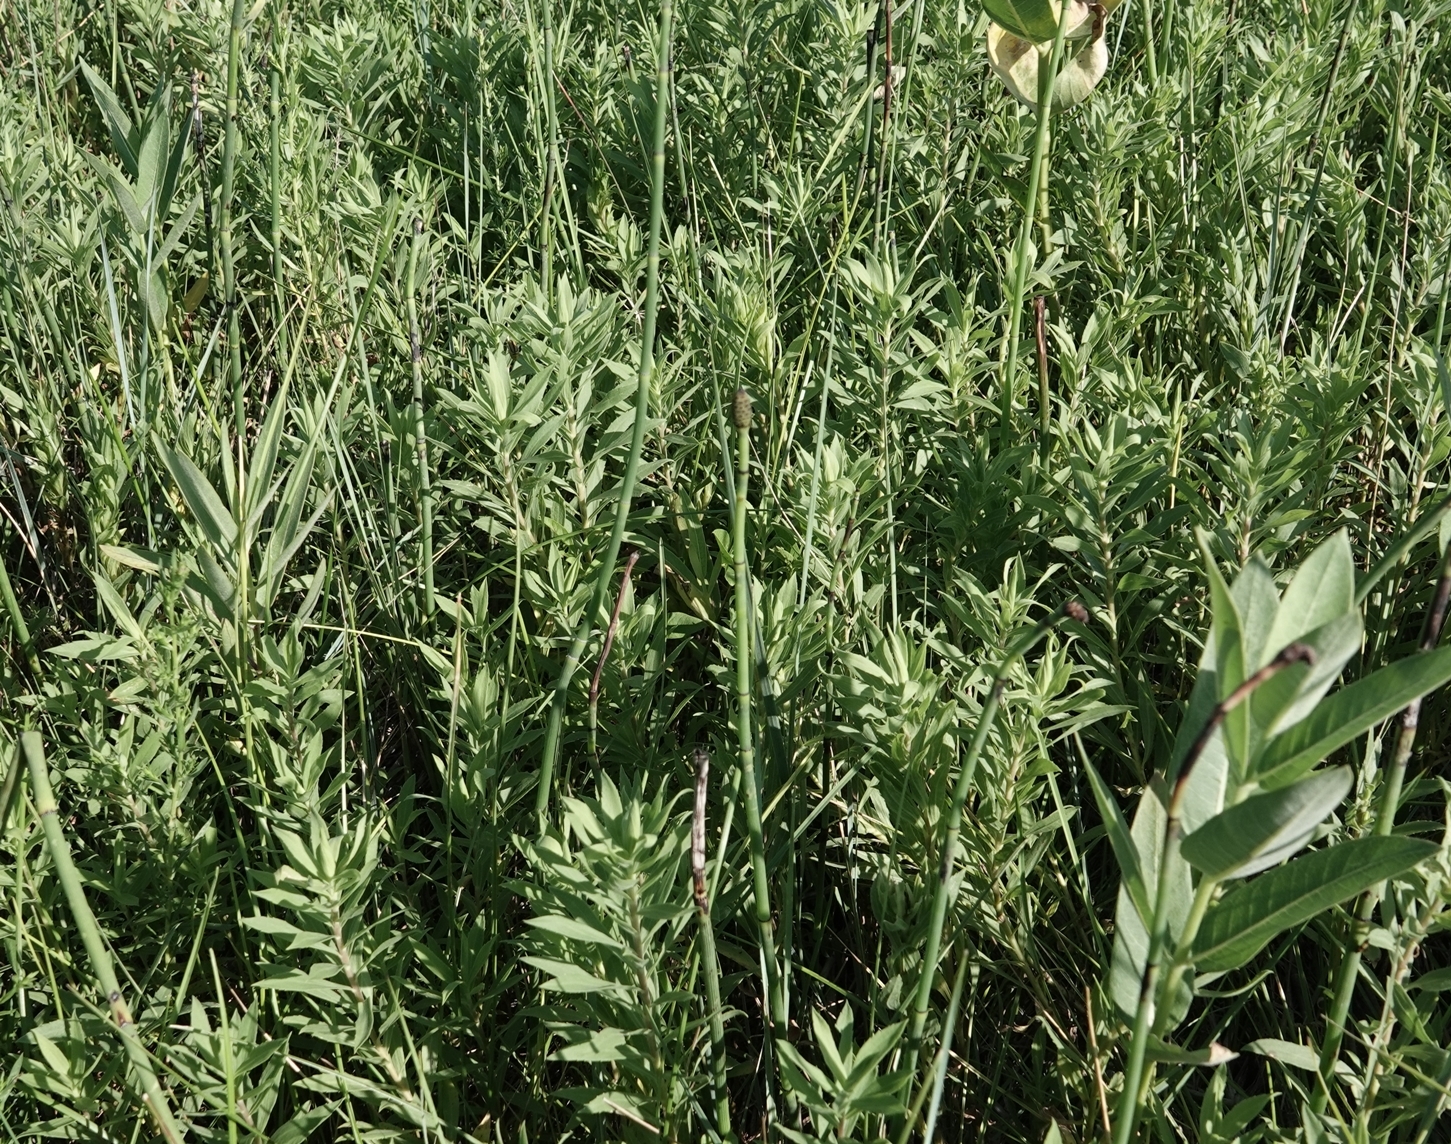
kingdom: Plantae
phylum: Tracheophyta
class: Polypodiopsida
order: Equisetales
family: Equisetaceae
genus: Equisetum
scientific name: Equisetum laevigatum
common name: Smooth scouring-rush
